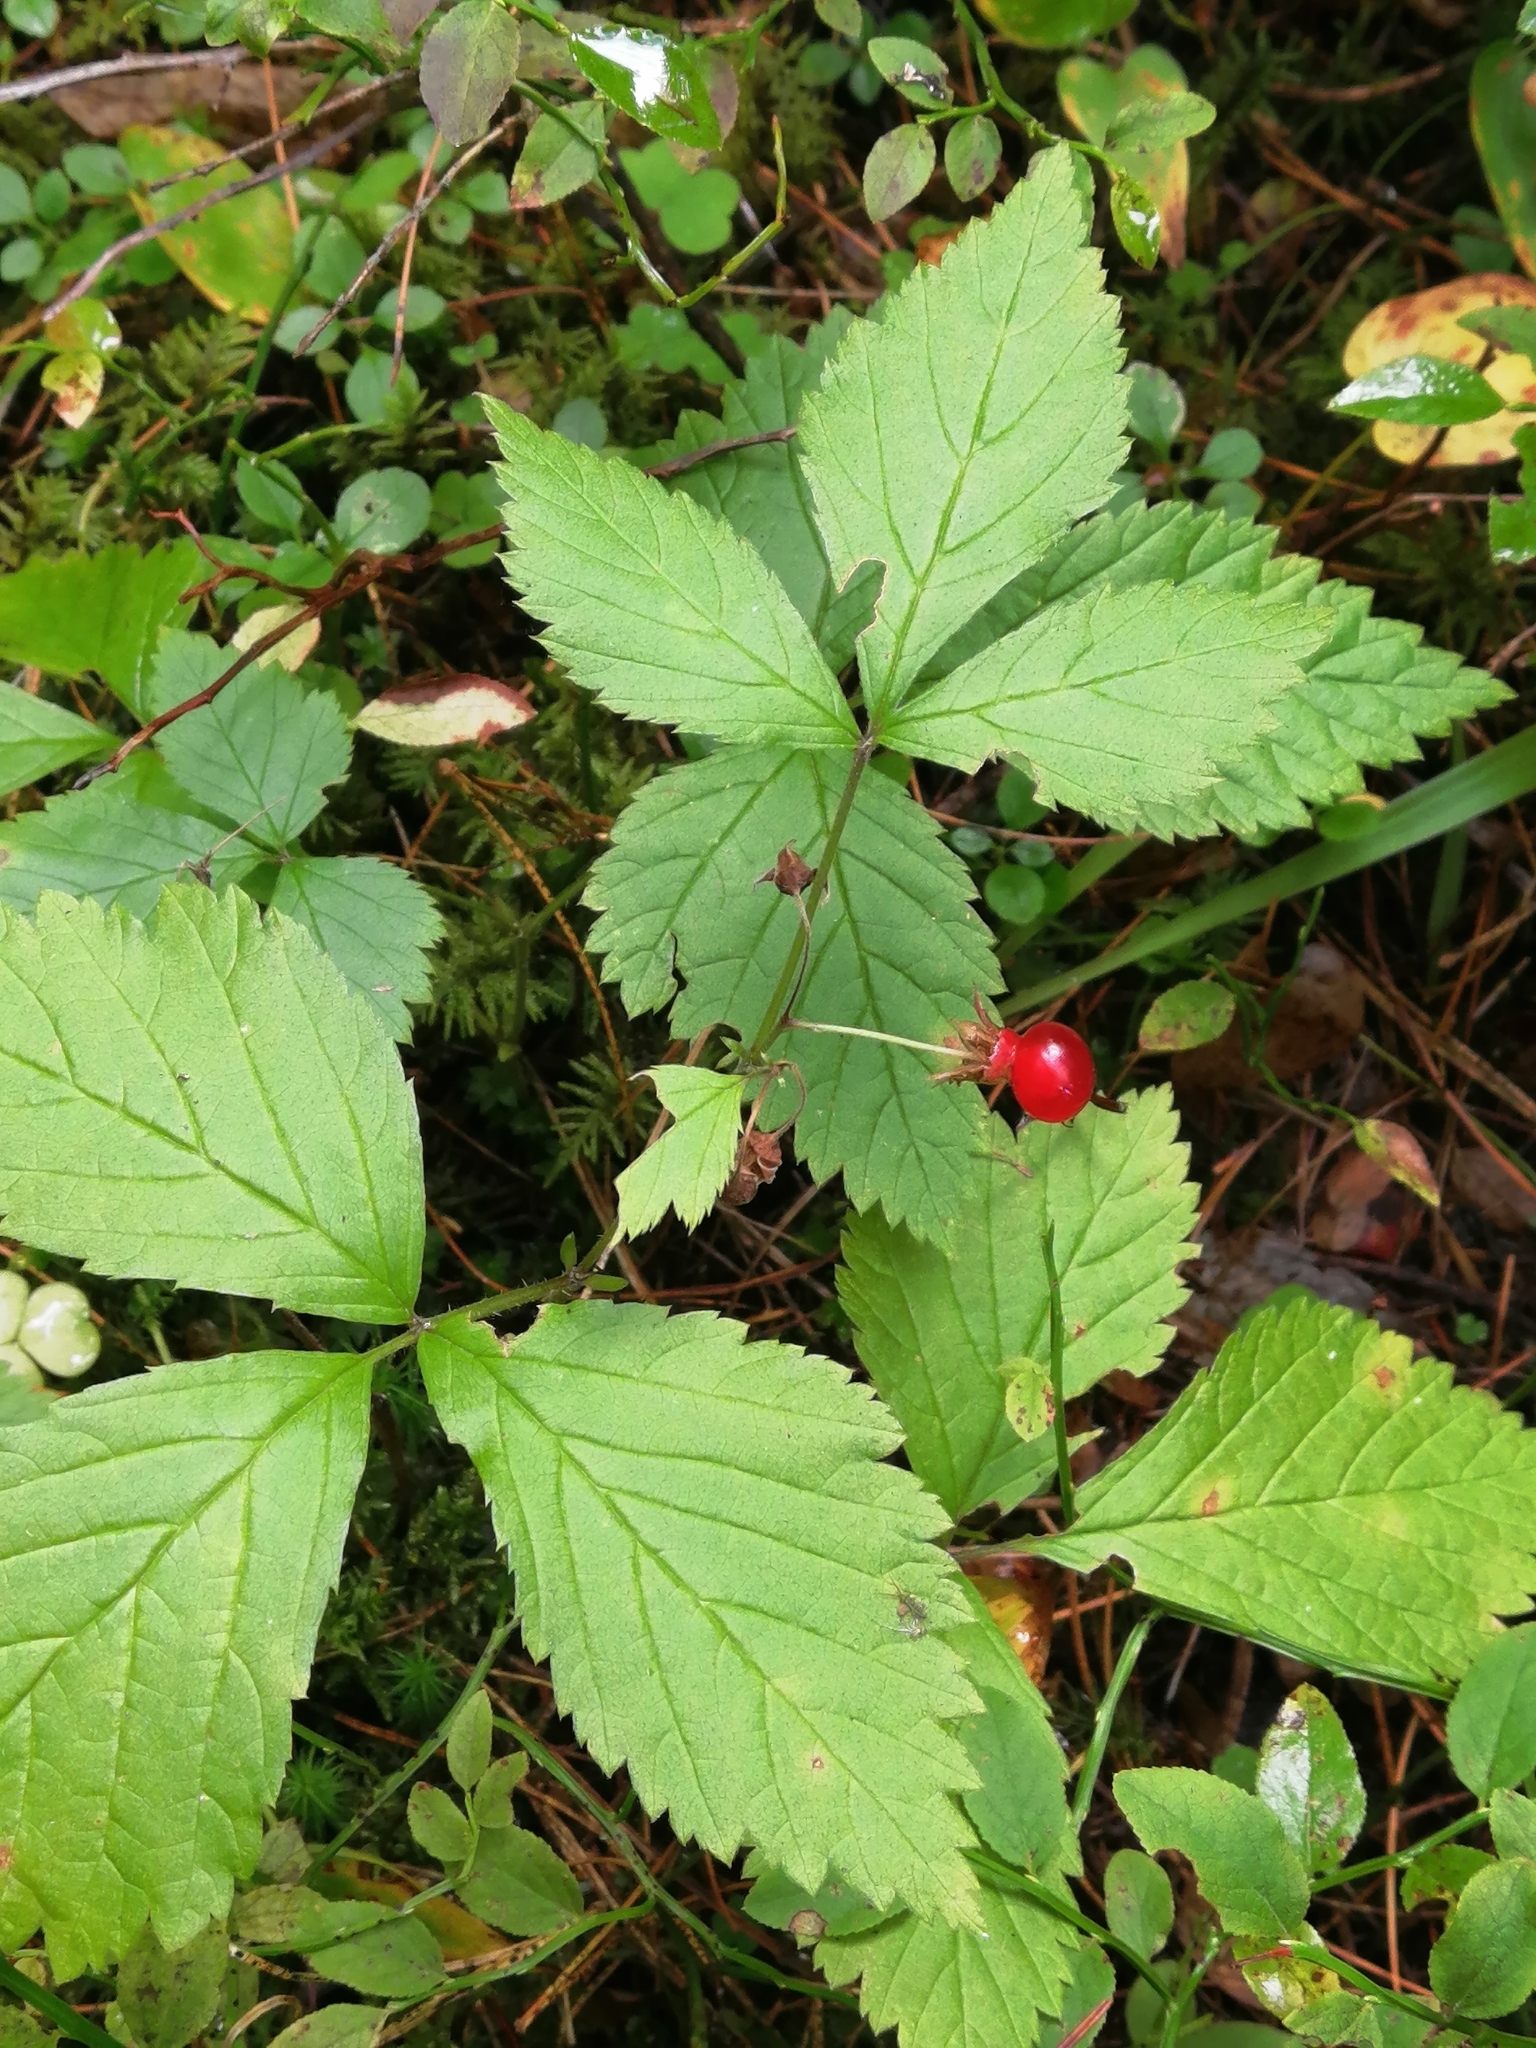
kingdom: Plantae
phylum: Tracheophyta
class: Magnoliopsida
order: Rosales
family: Rosaceae
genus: Rubus
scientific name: Rubus saxatilis
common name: Stone bramble
